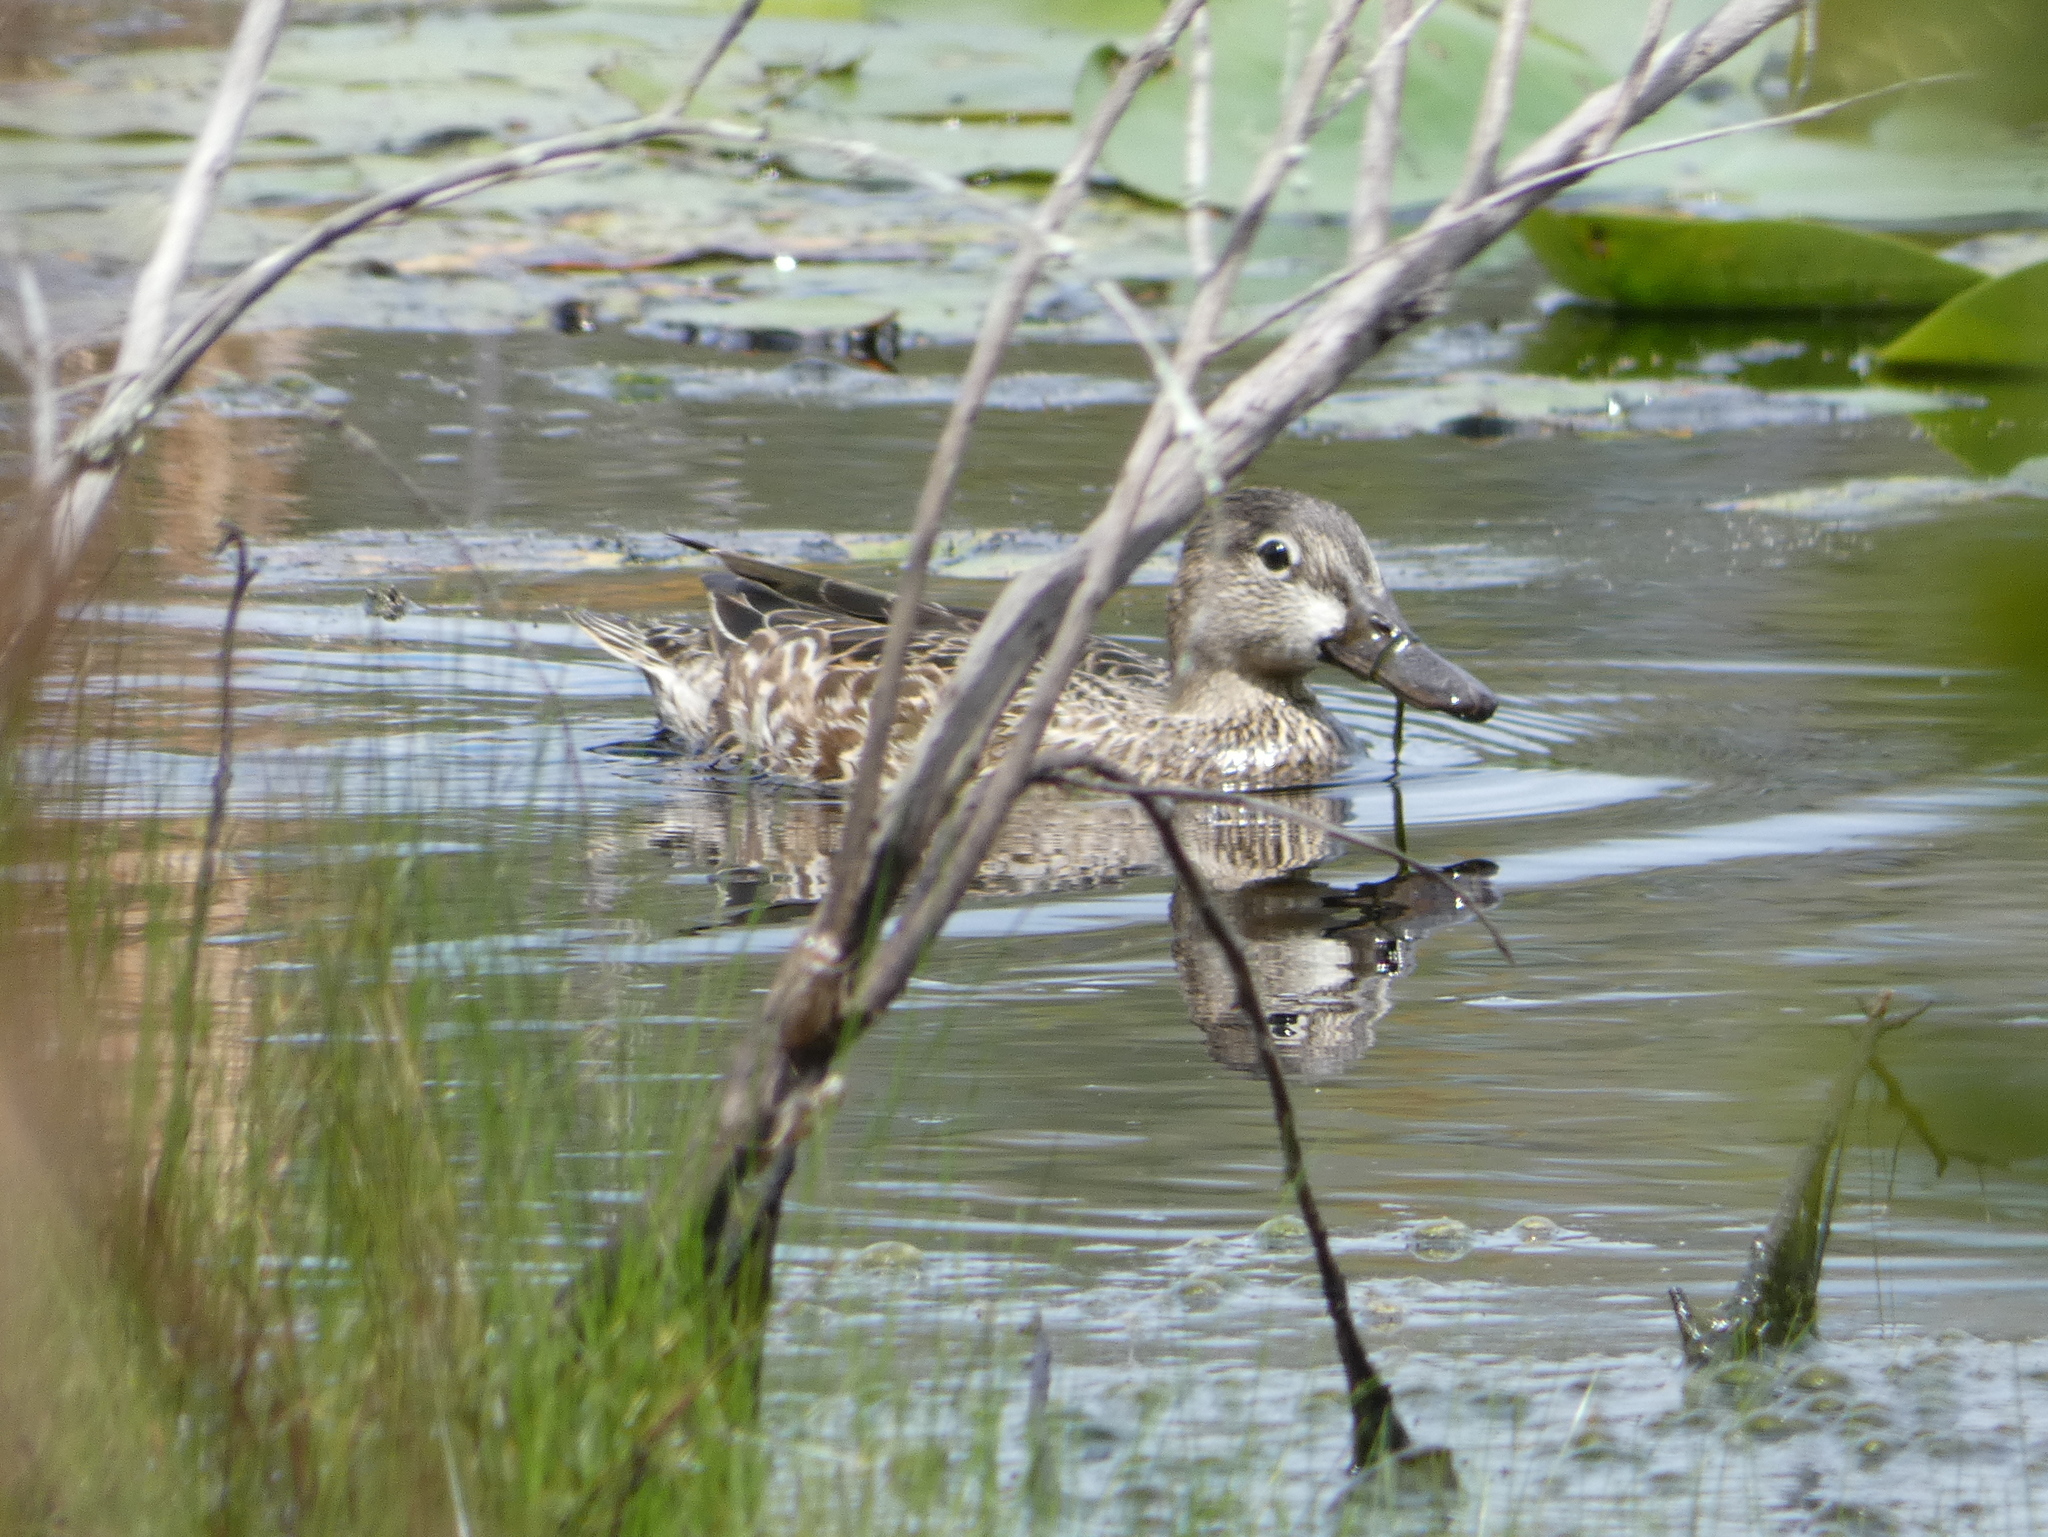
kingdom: Animalia
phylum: Chordata
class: Aves
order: Anseriformes
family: Anatidae
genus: Spatula
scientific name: Spatula discors
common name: Blue-winged teal
